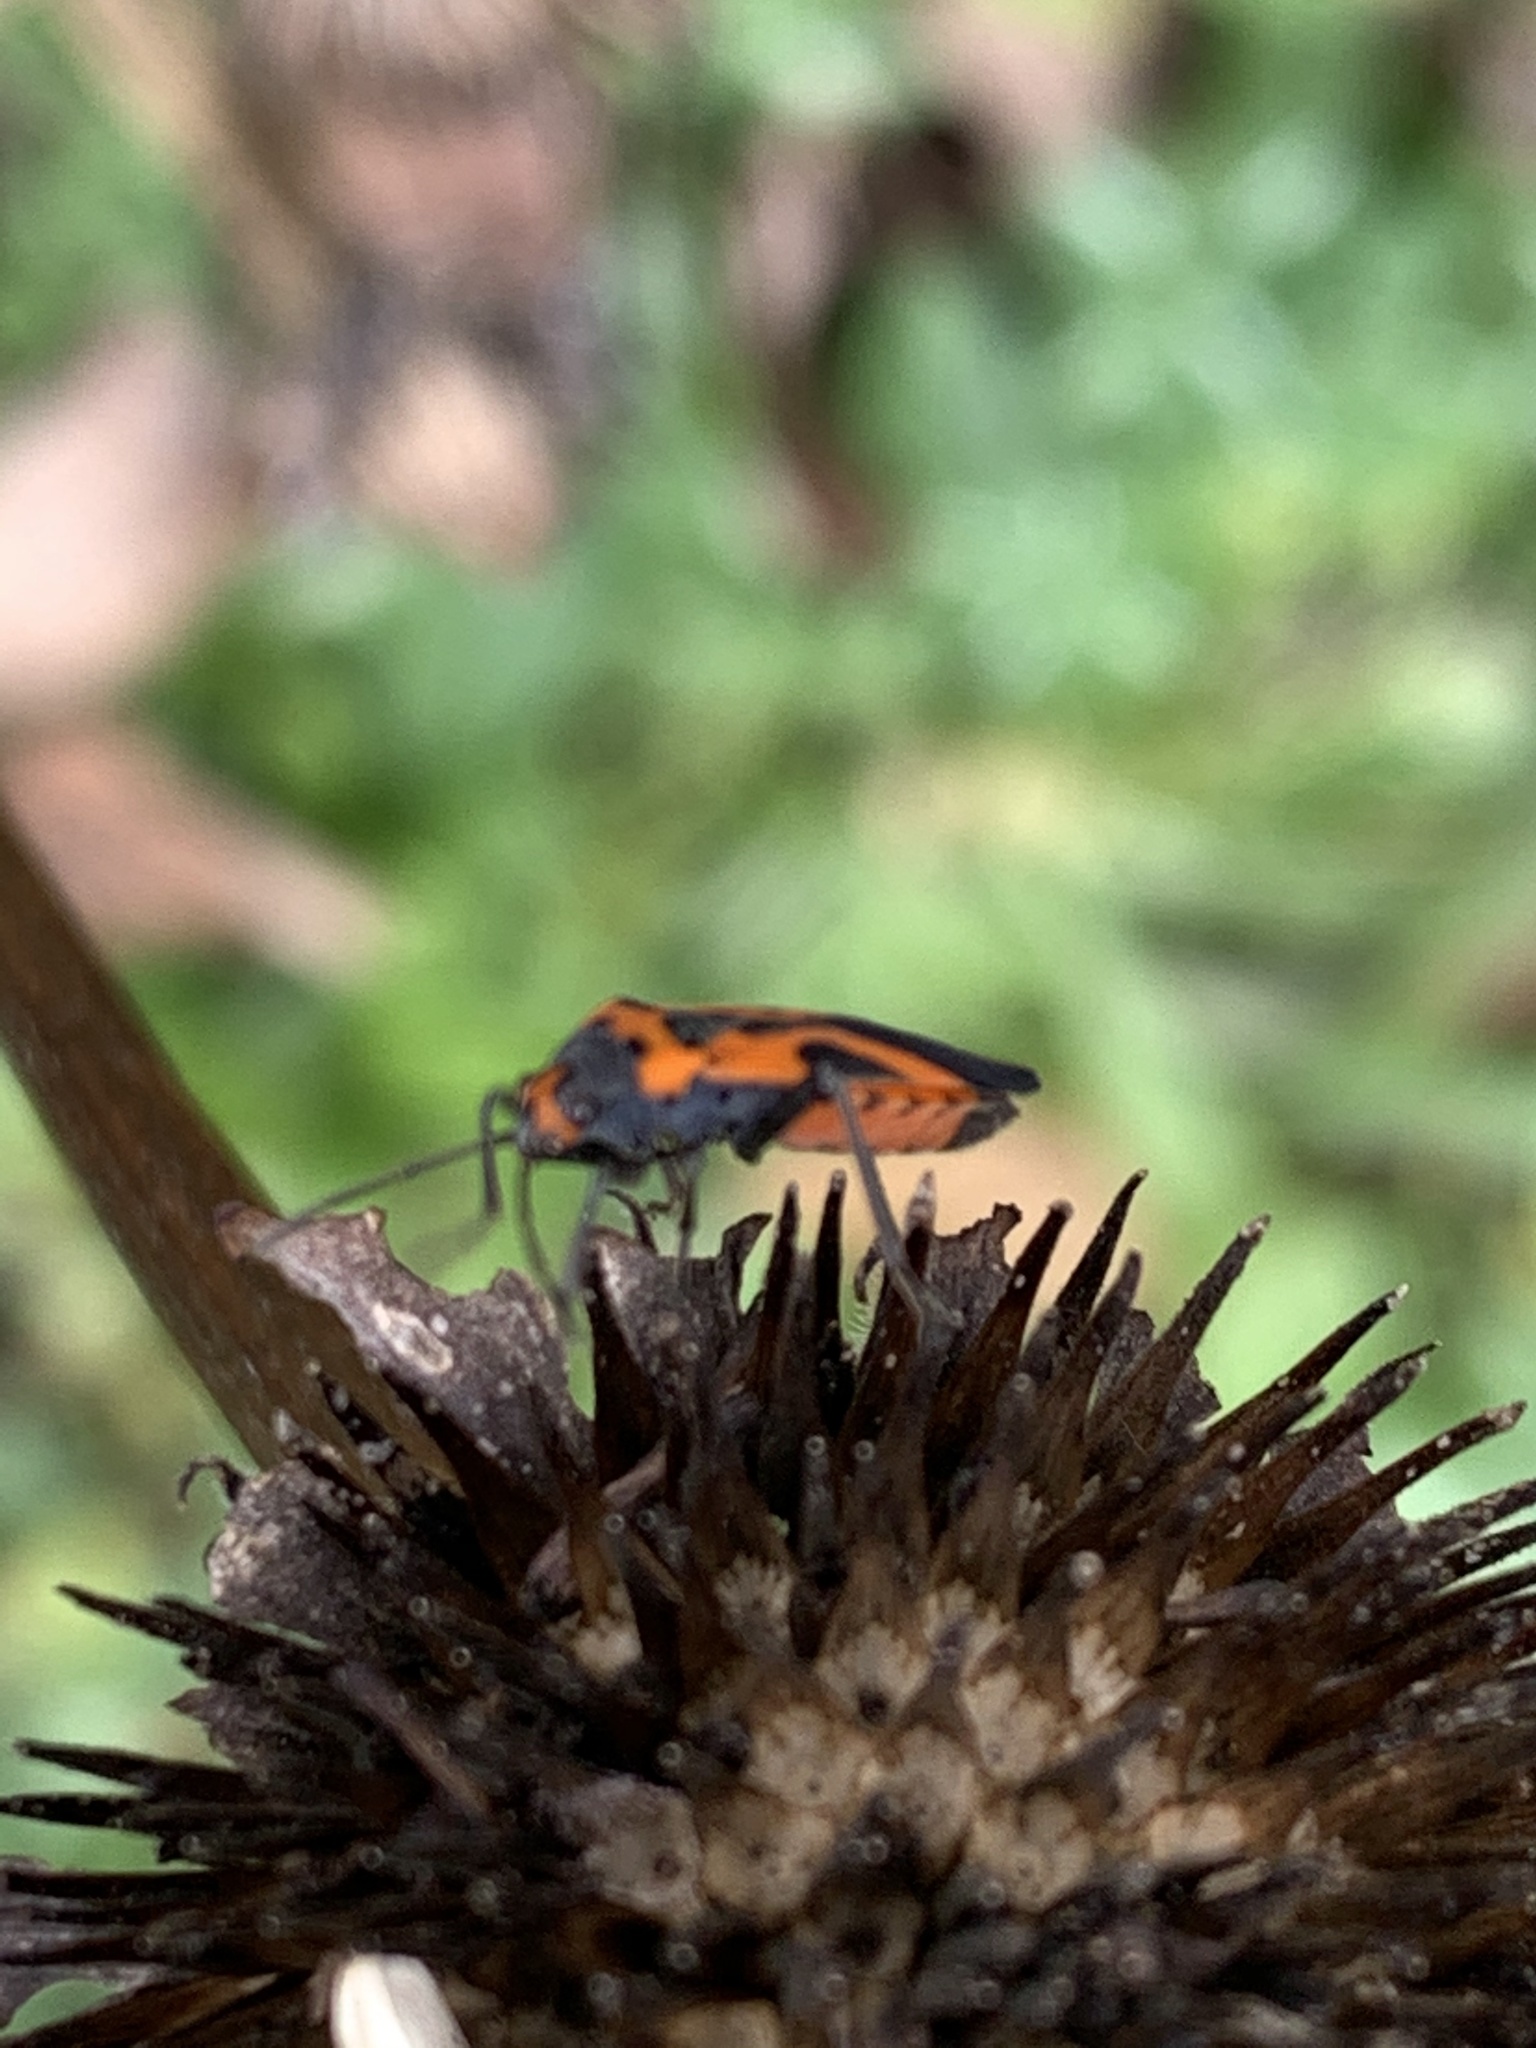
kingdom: Animalia
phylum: Arthropoda
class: Insecta
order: Hemiptera
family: Lygaeidae
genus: Lygaeus
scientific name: Lygaeus turcicus
